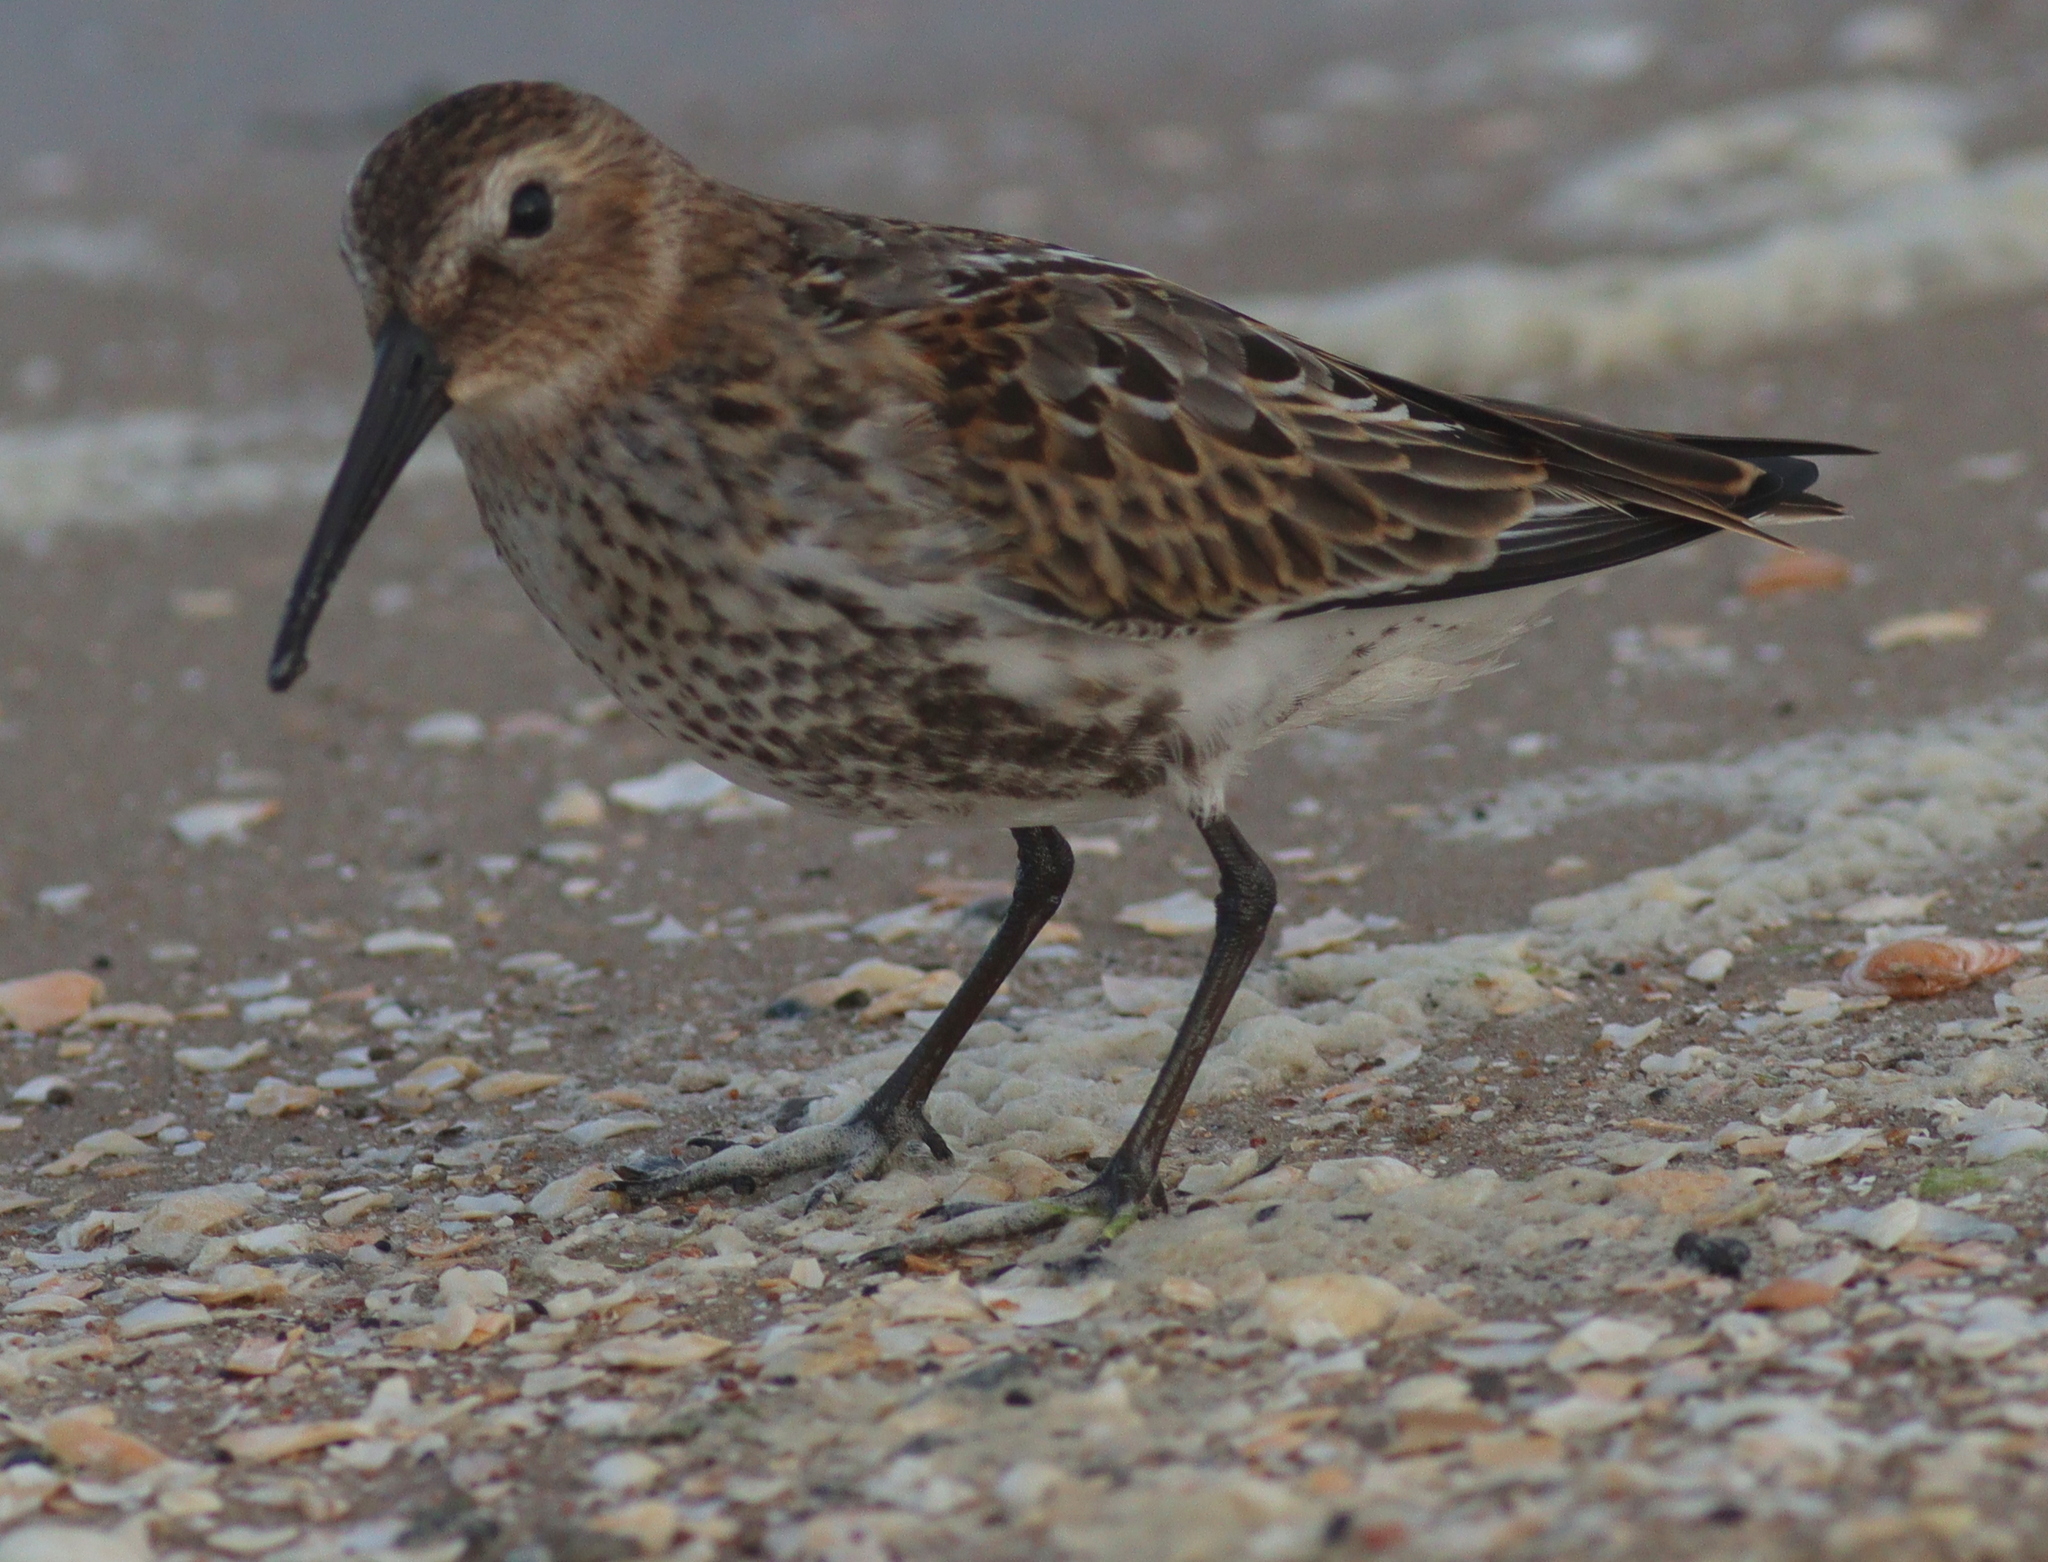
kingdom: Animalia
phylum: Chordata
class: Aves
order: Charadriiformes
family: Scolopacidae
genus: Calidris
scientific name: Calidris alpina
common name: Dunlin
